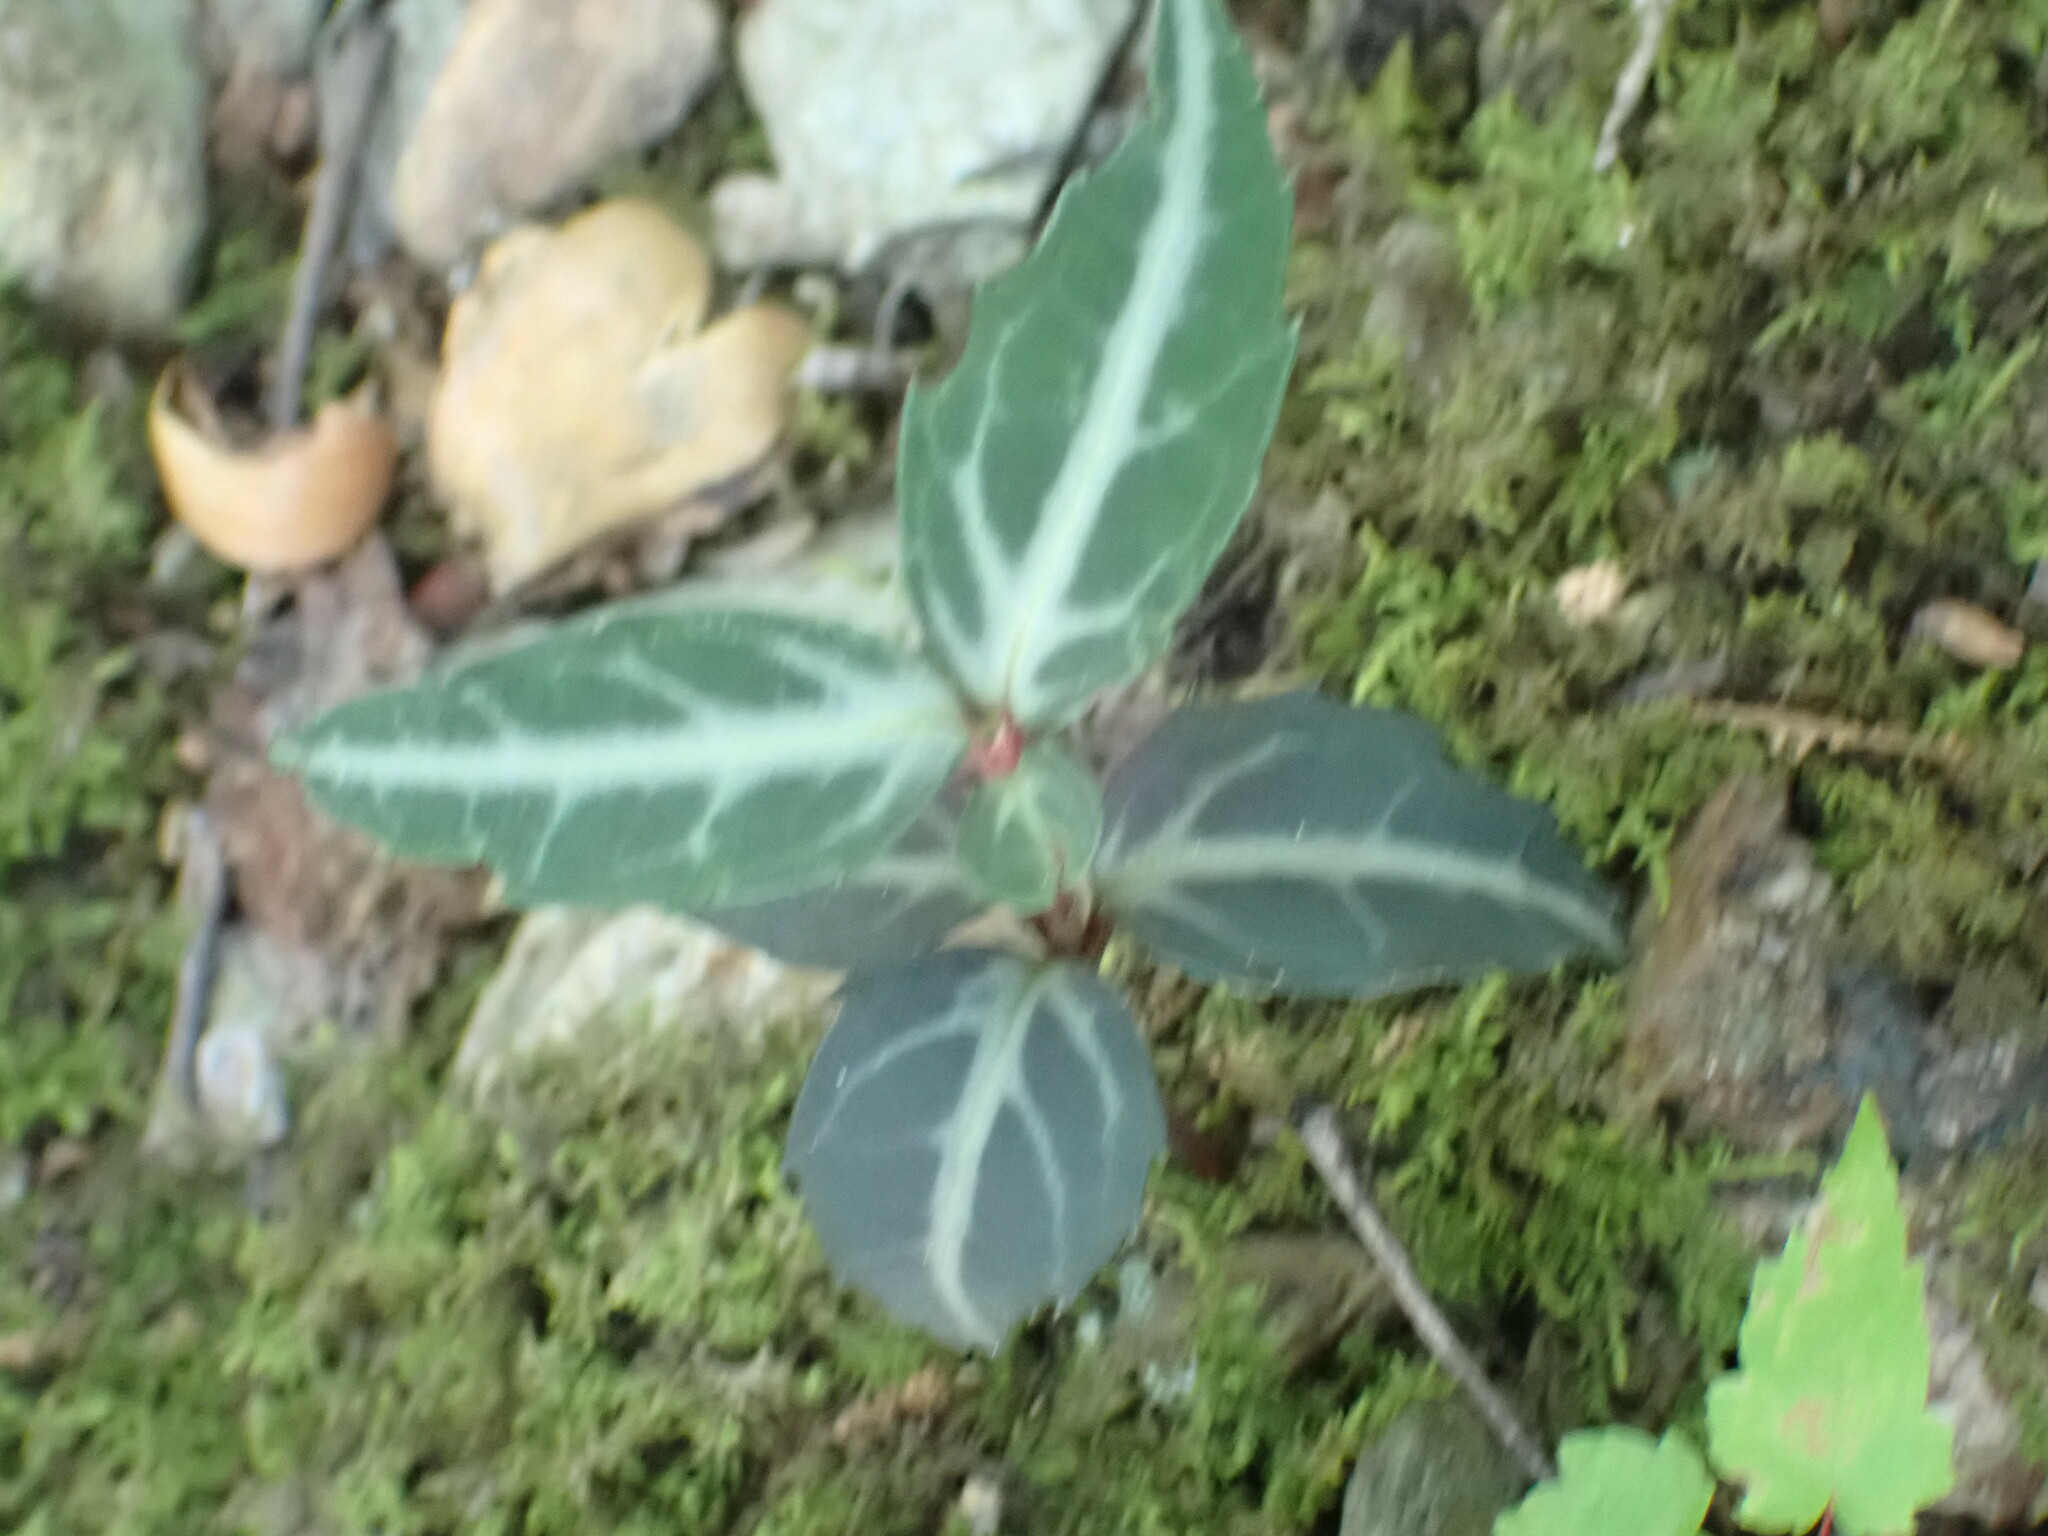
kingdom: Plantae
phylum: Tracheophyta
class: Magnoliopsida
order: Ericales
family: Ericaceae
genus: Chimaphila
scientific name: Chimaphila maculata
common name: Spotted pipsissewa
